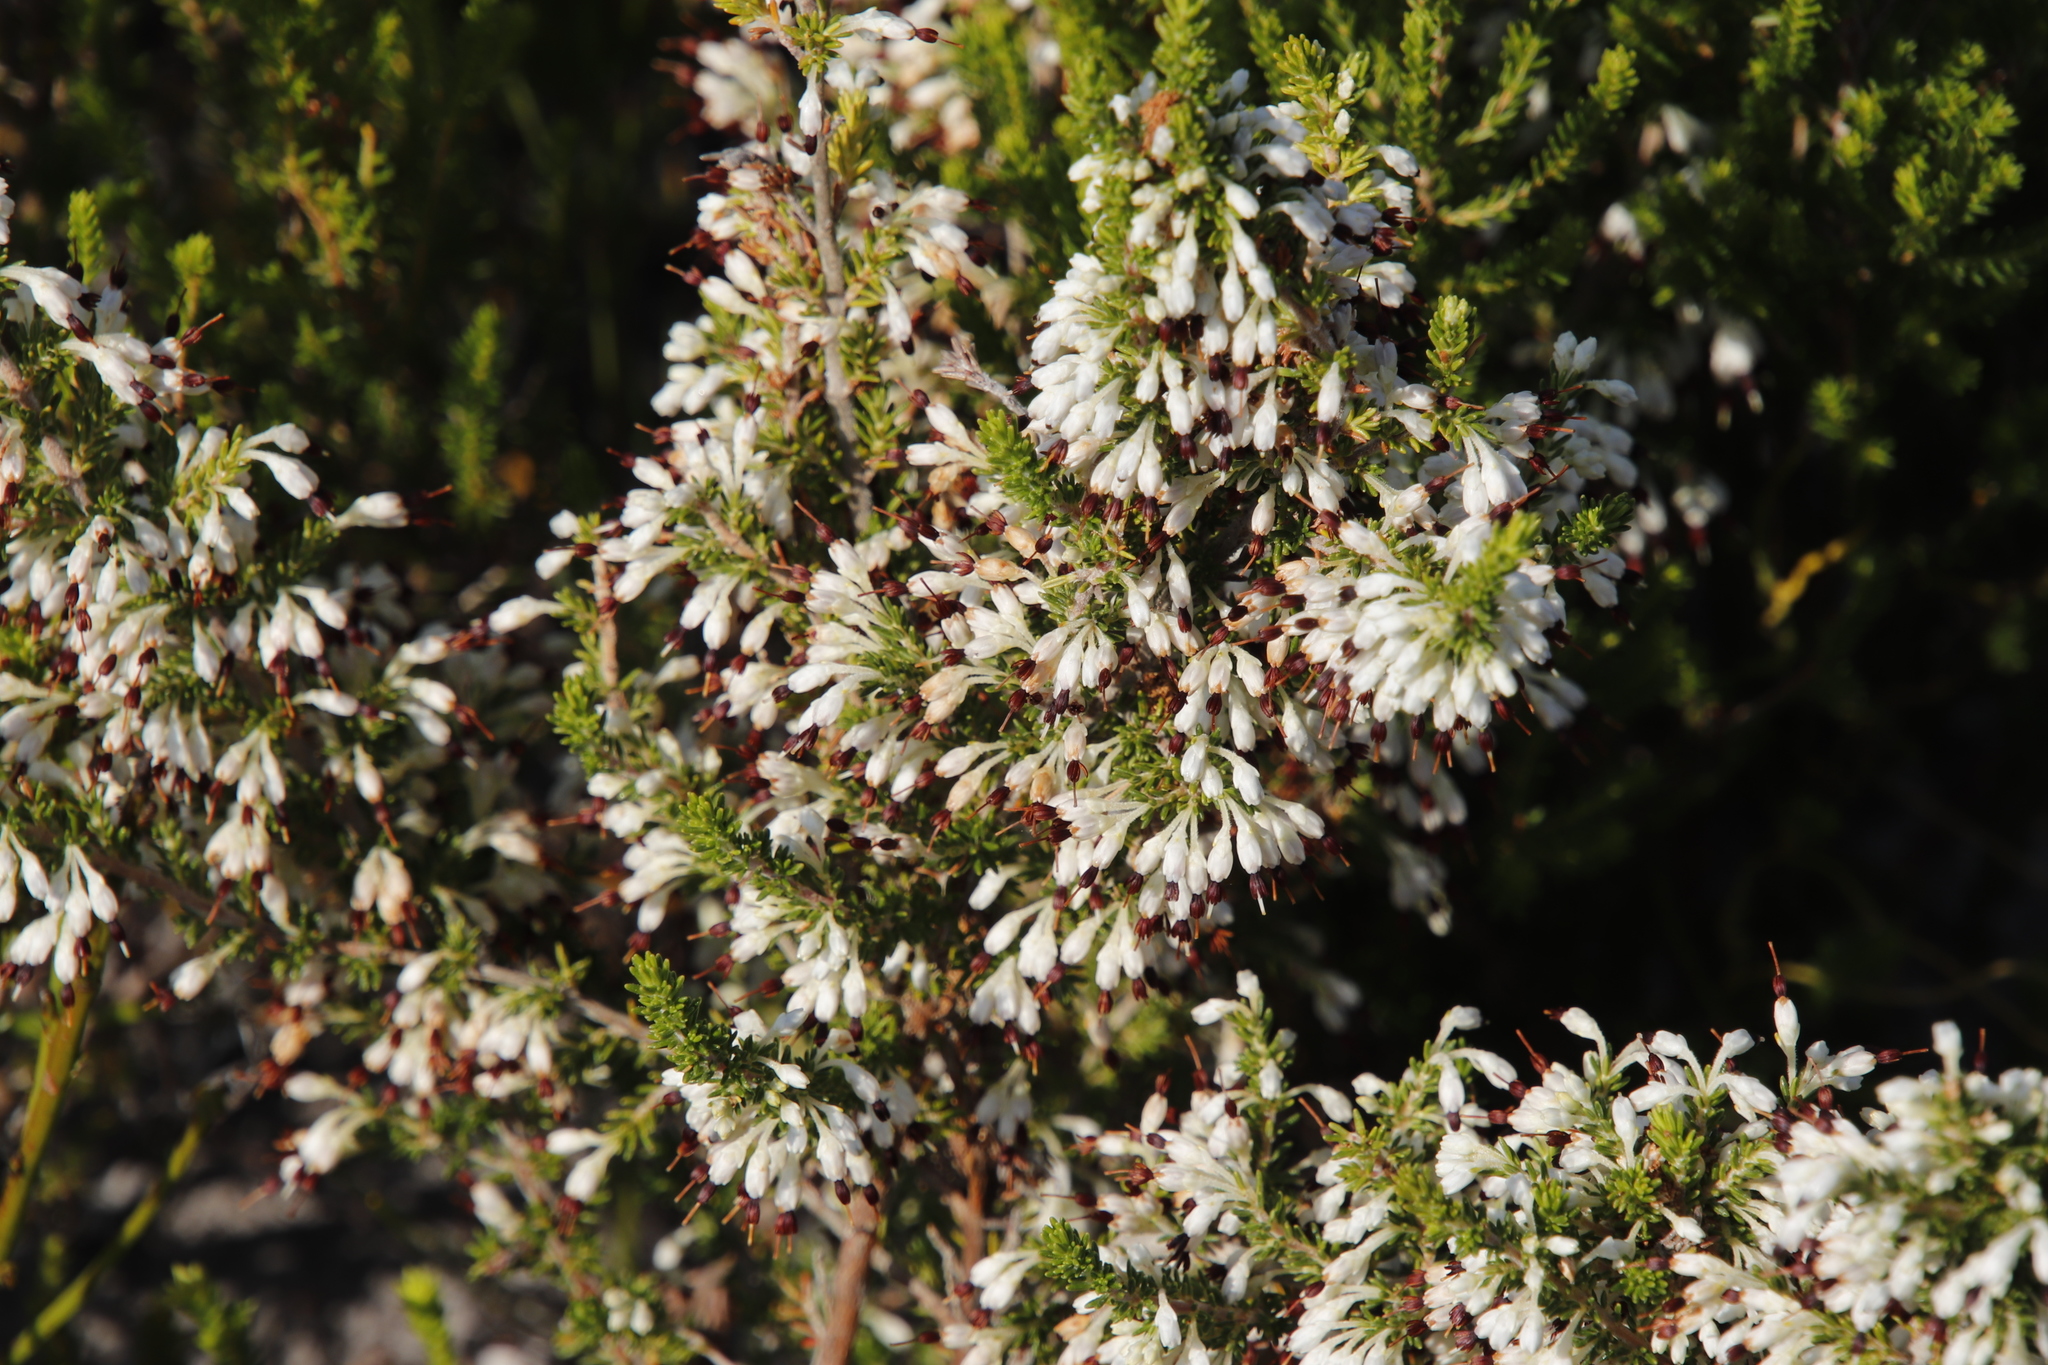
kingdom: Plantae
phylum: Tracheophyta
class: Magnoliopsida
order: Ericales
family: Ericaceae
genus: Erica
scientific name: Erica imbricata
